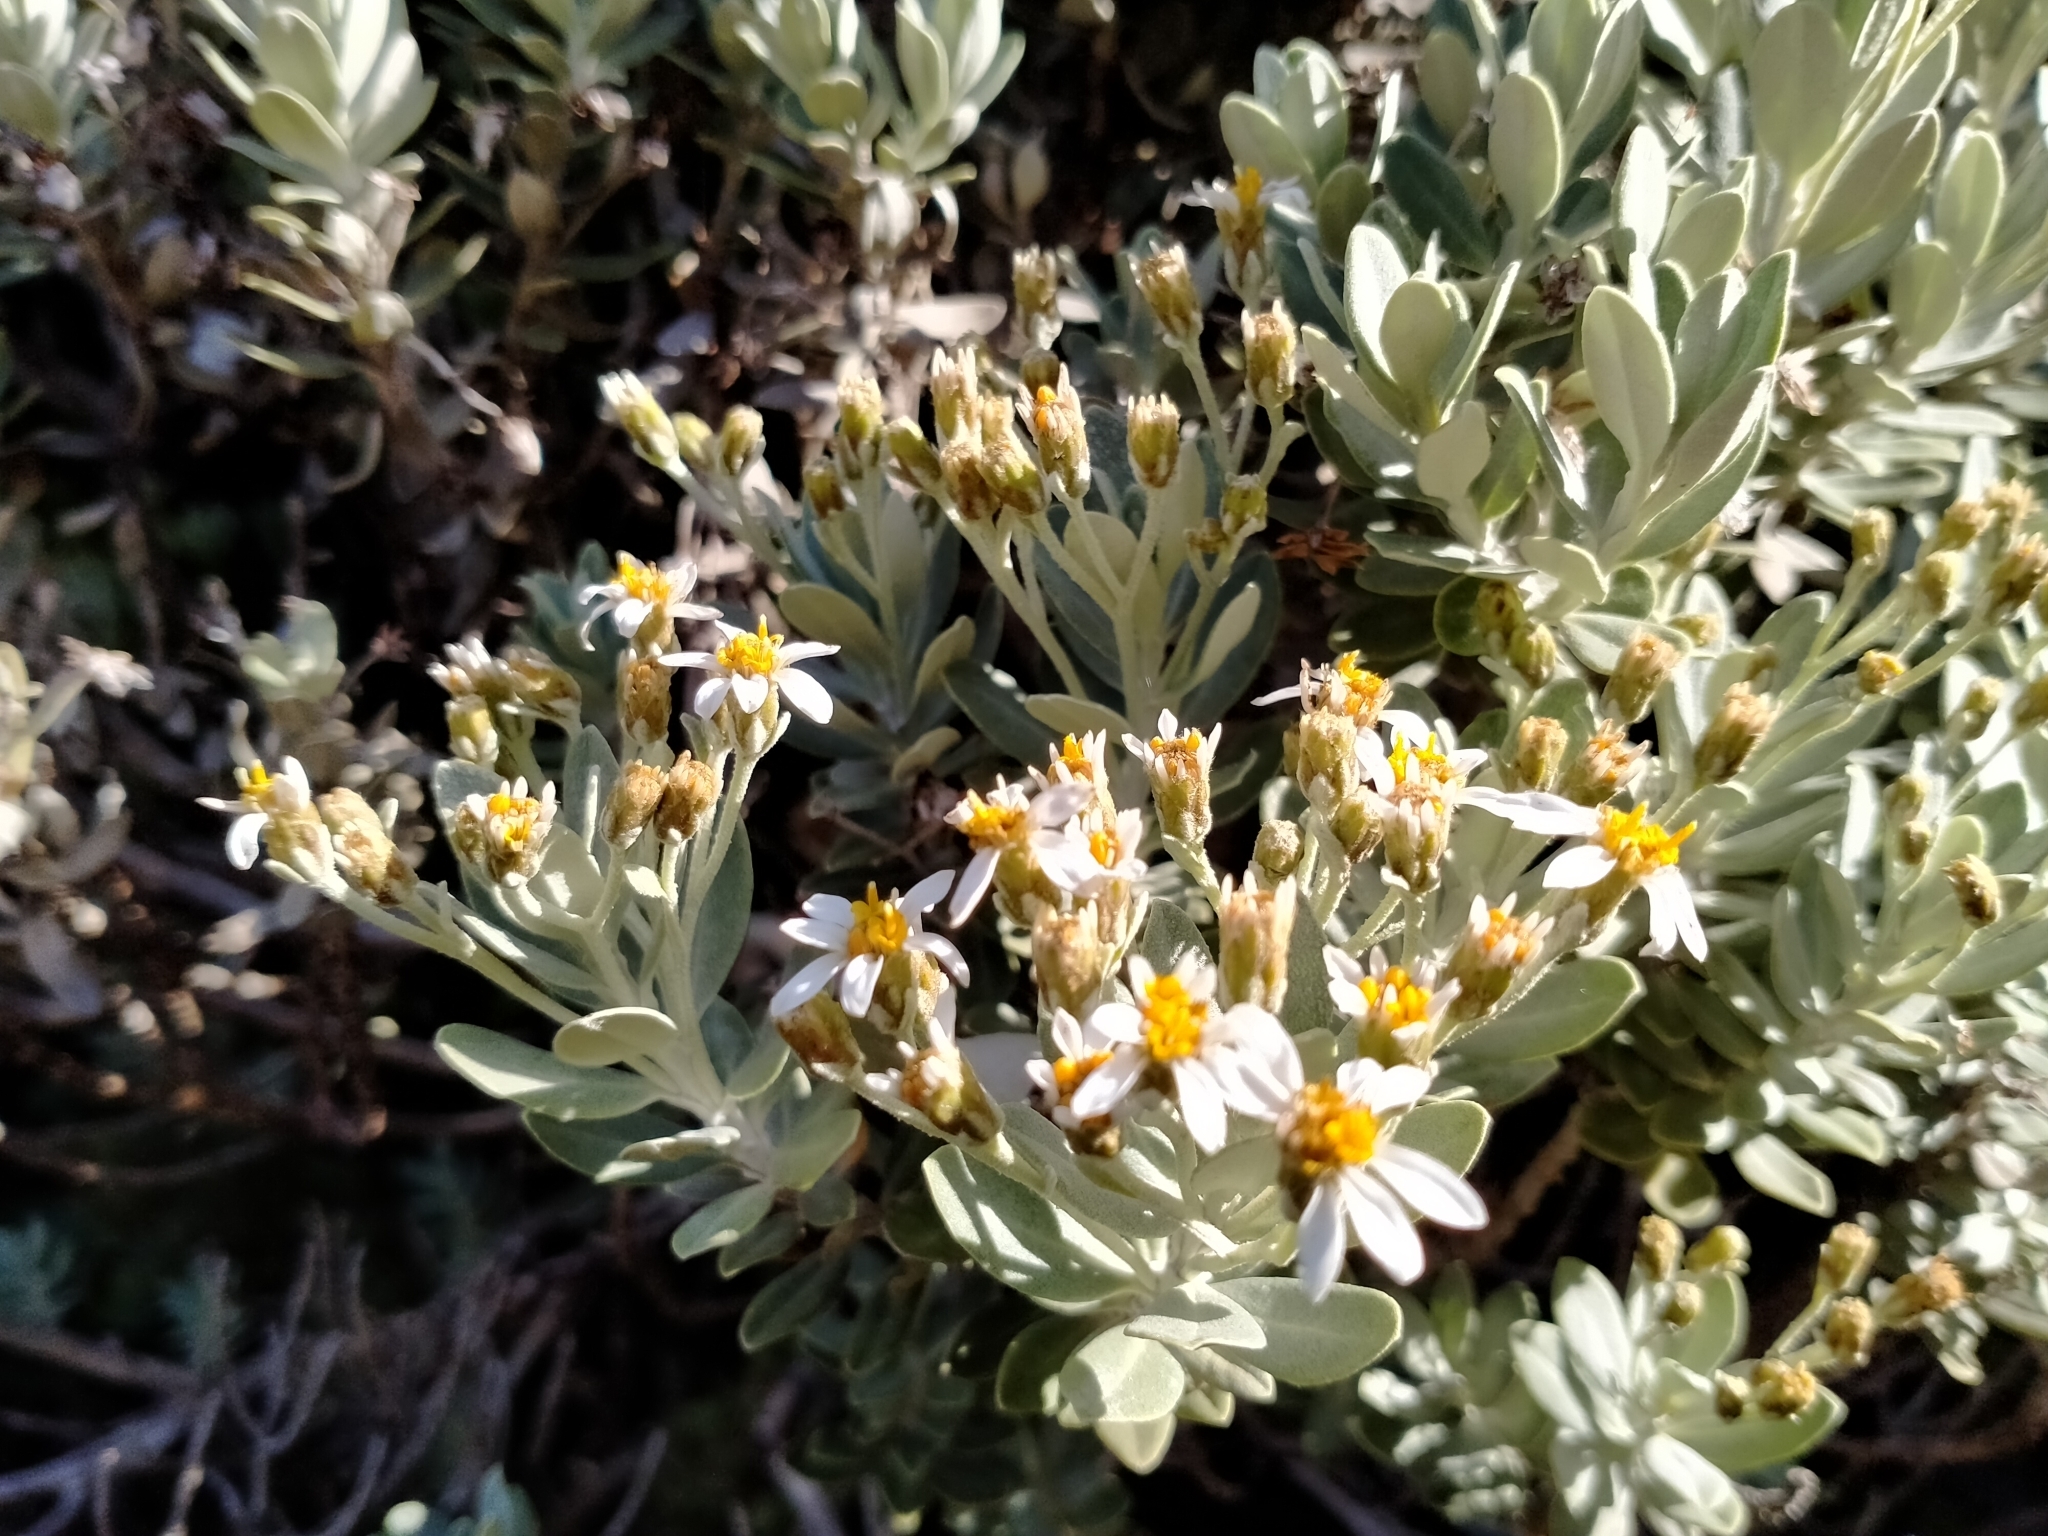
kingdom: Plantae
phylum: Tracheophyta
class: Magnoliopsida
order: Asterales
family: Asteraceae
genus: Olearia
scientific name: Olearia moschata
